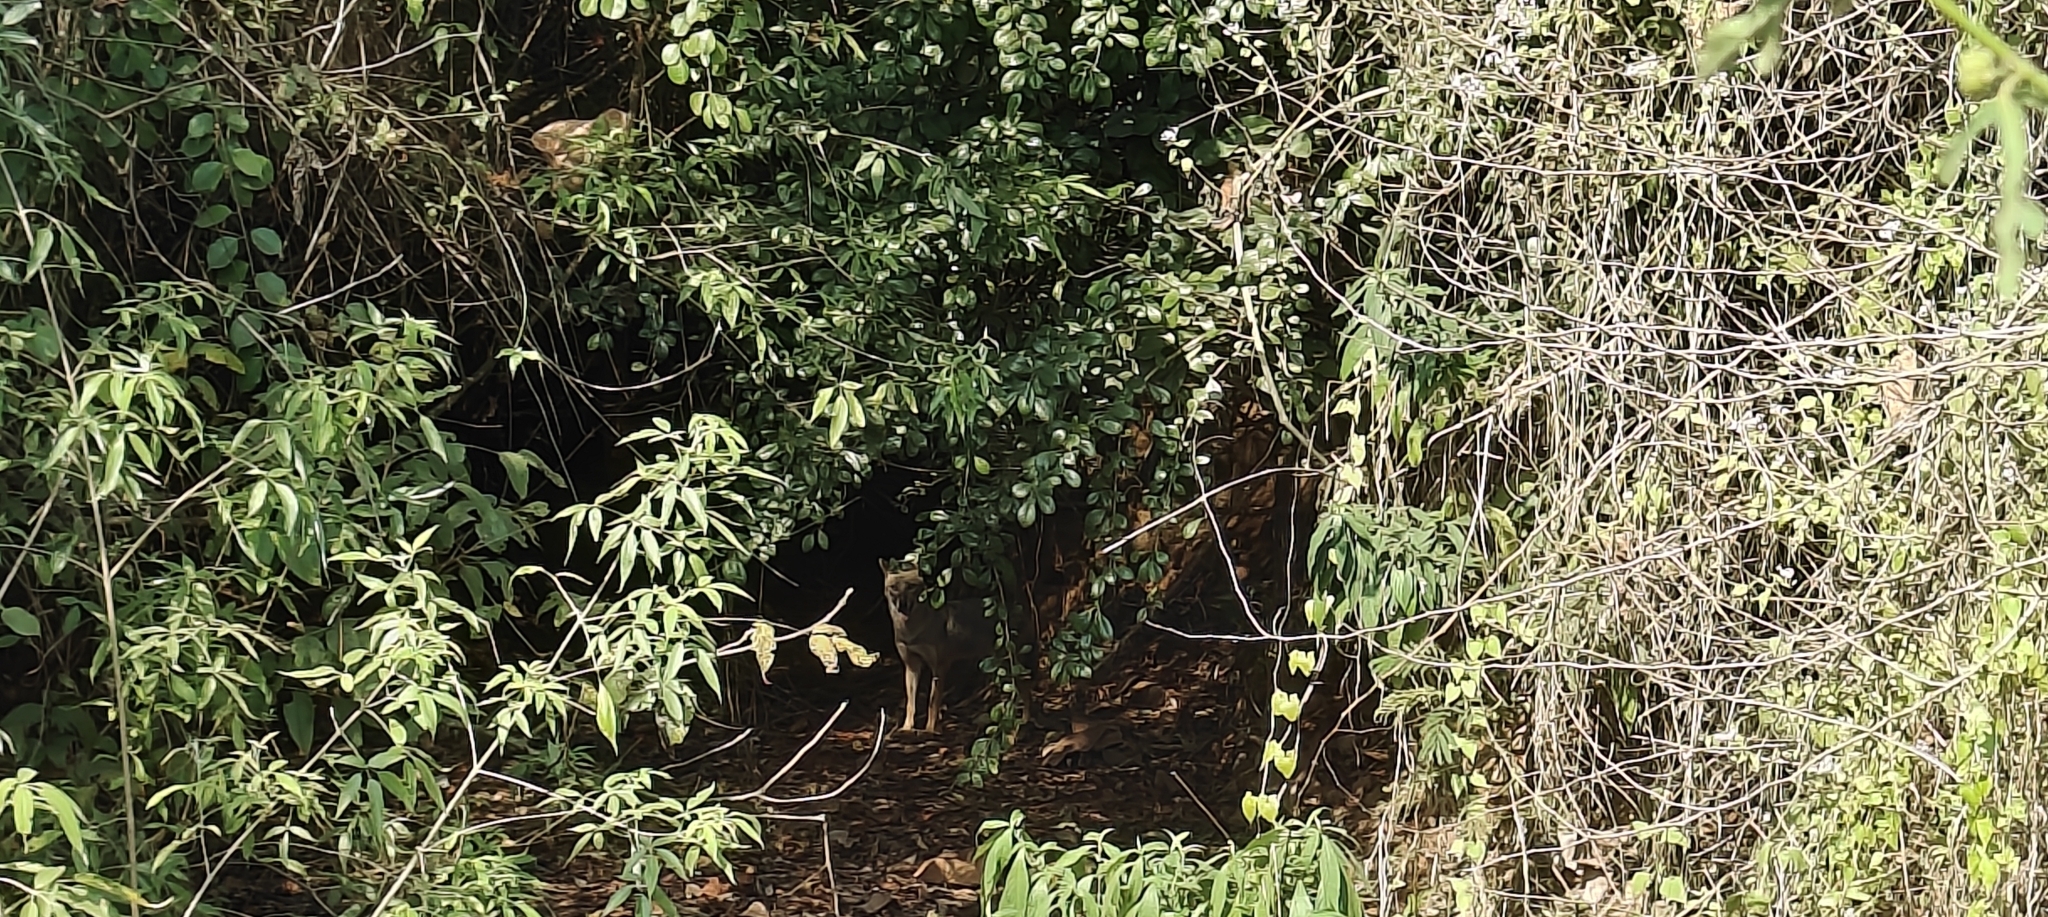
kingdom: Animalia
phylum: Chordata
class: Mammalia
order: Carnivora
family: Canidae
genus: Canis
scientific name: Canis aureus
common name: Golden jackal
